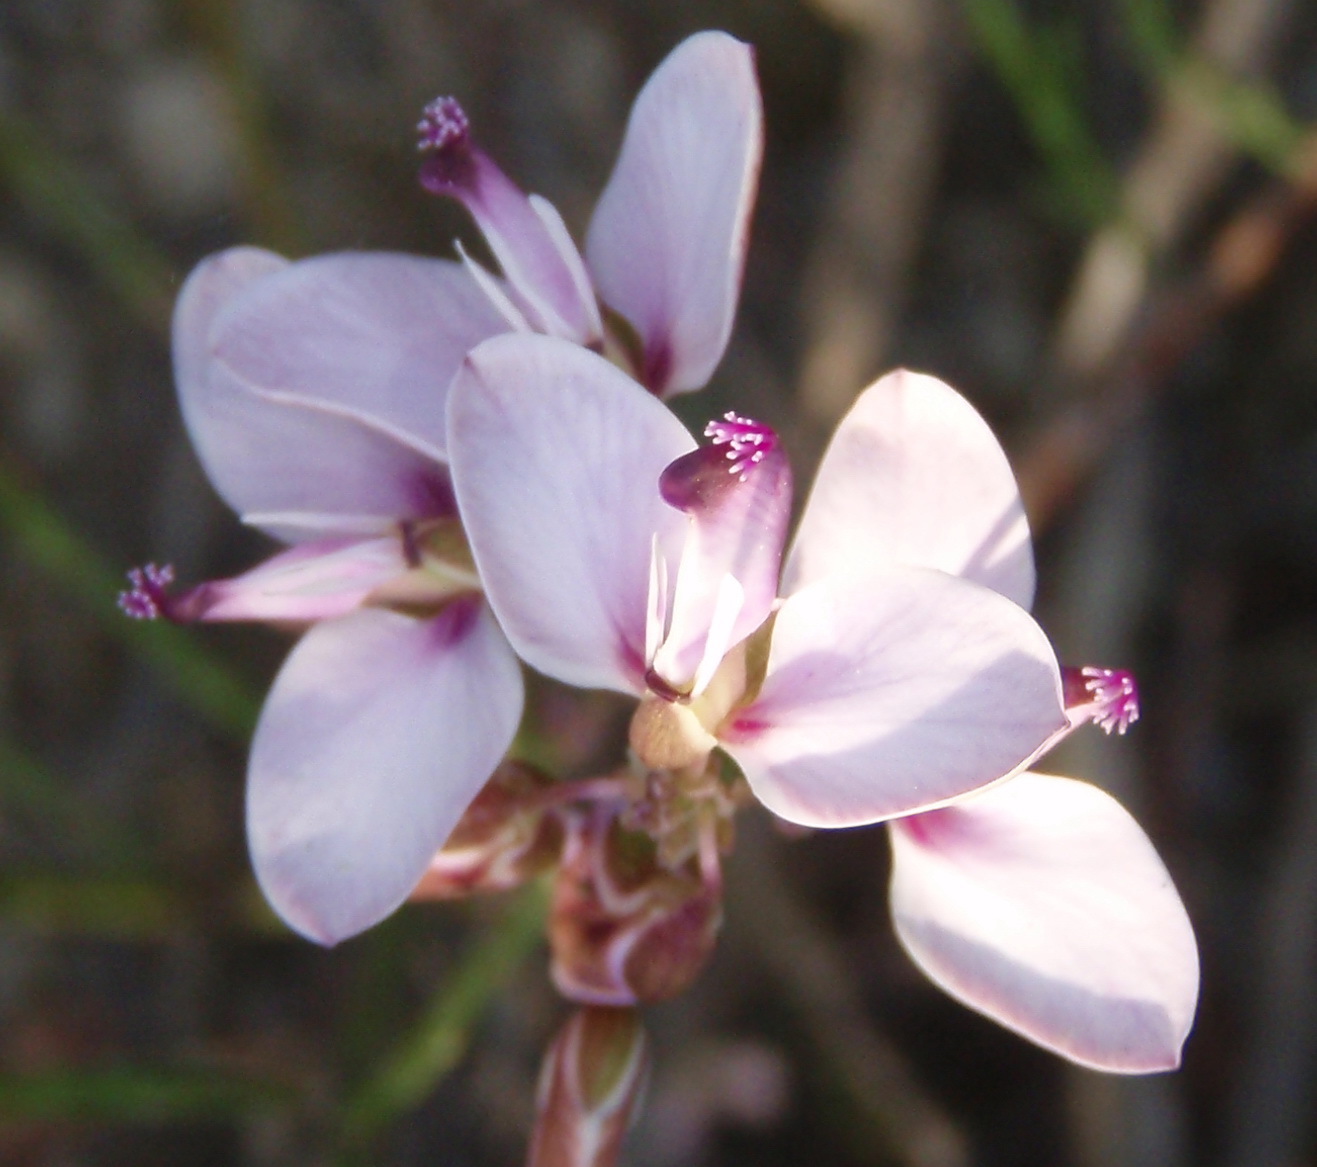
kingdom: Plantae
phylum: Tracheophyta
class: Magnoliopsida
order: Fabales
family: Polygalaceae
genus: Polygala
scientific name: Polygala microlopha
